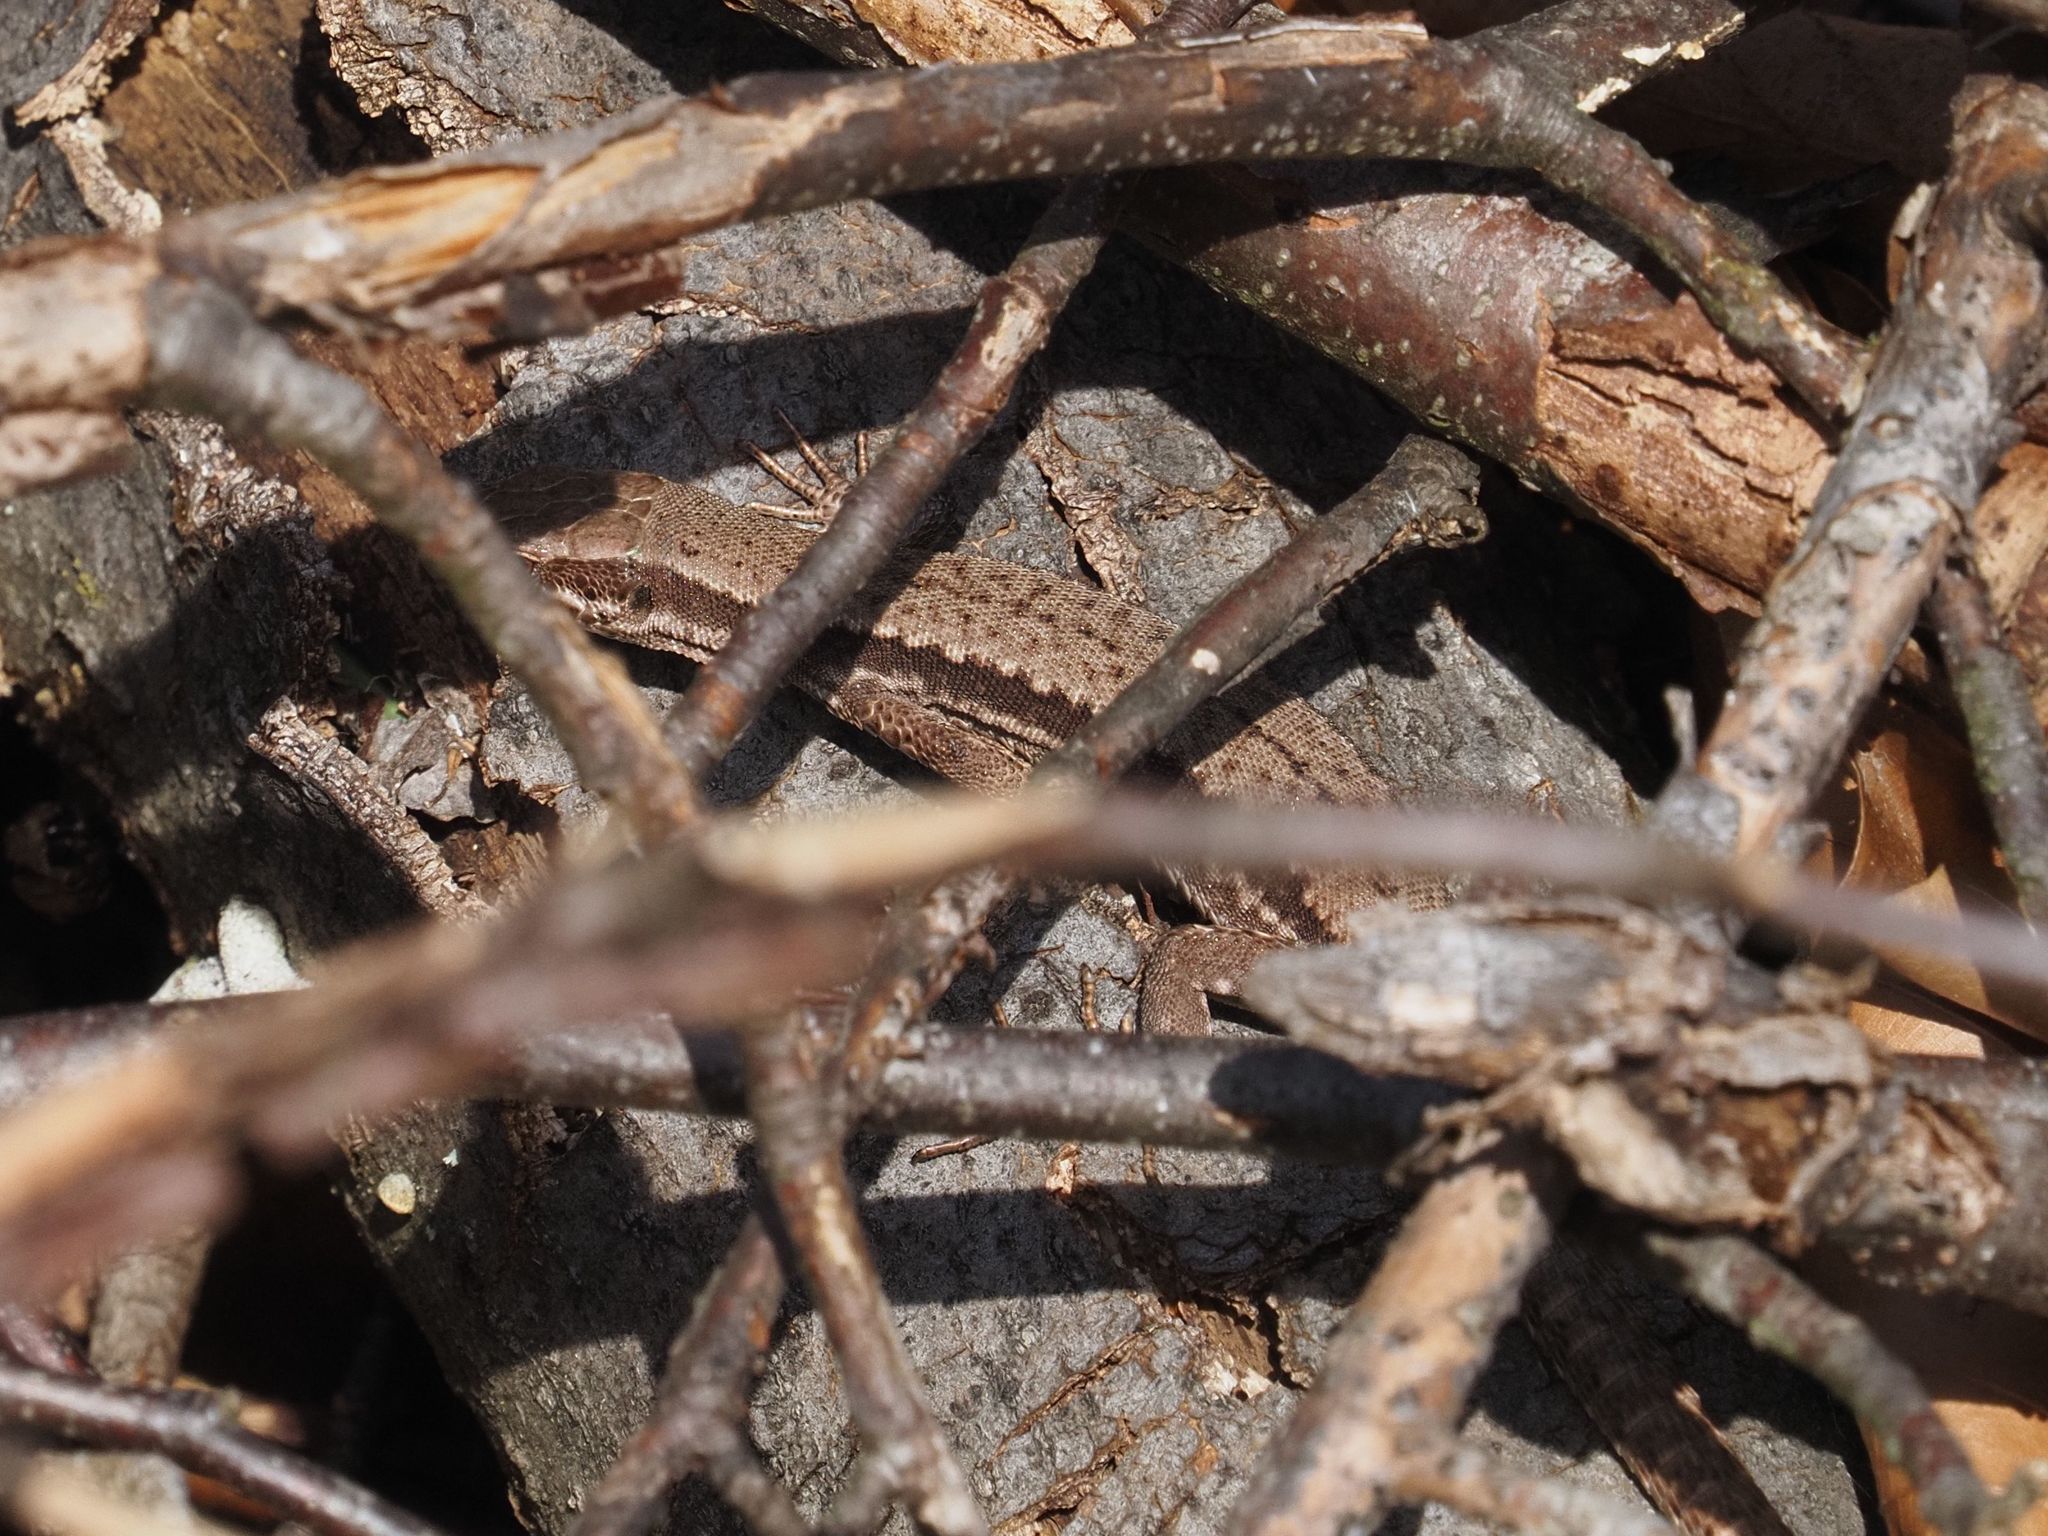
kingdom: Animalia
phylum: Chordata
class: Squamata
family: Lacertidae
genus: Podarcis
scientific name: Podarcis muralis
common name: Common wall lizard
